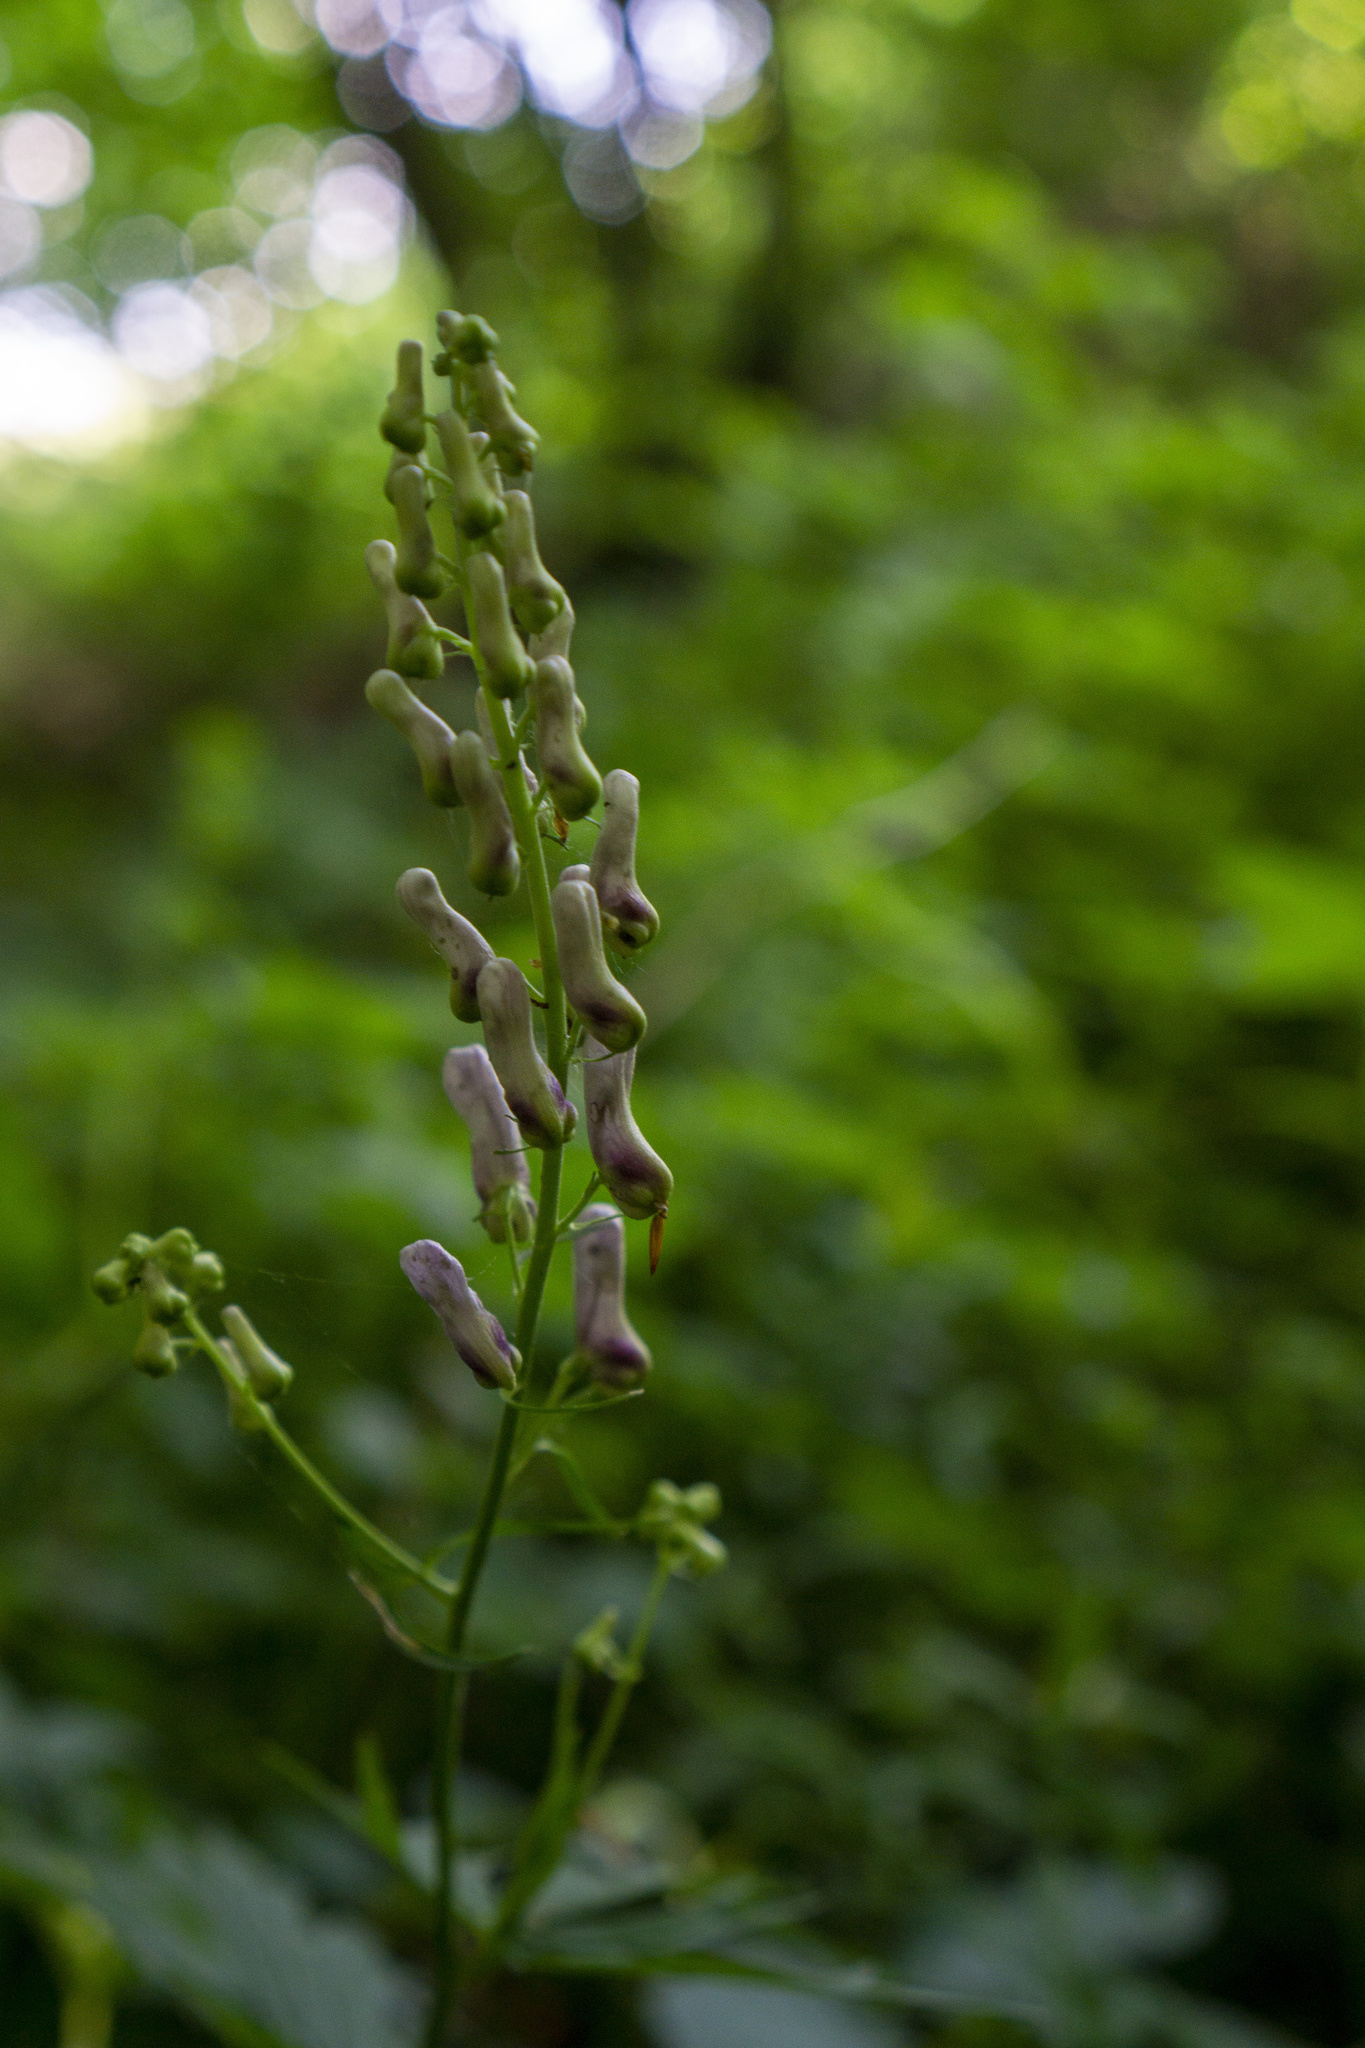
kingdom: Plantae
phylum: Tracheophyta
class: Magnoliopsida
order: Ranunculales
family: Ranunculaceae
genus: Aconitum
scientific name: Aconitum lycoctonum
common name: Wolf's-bane
